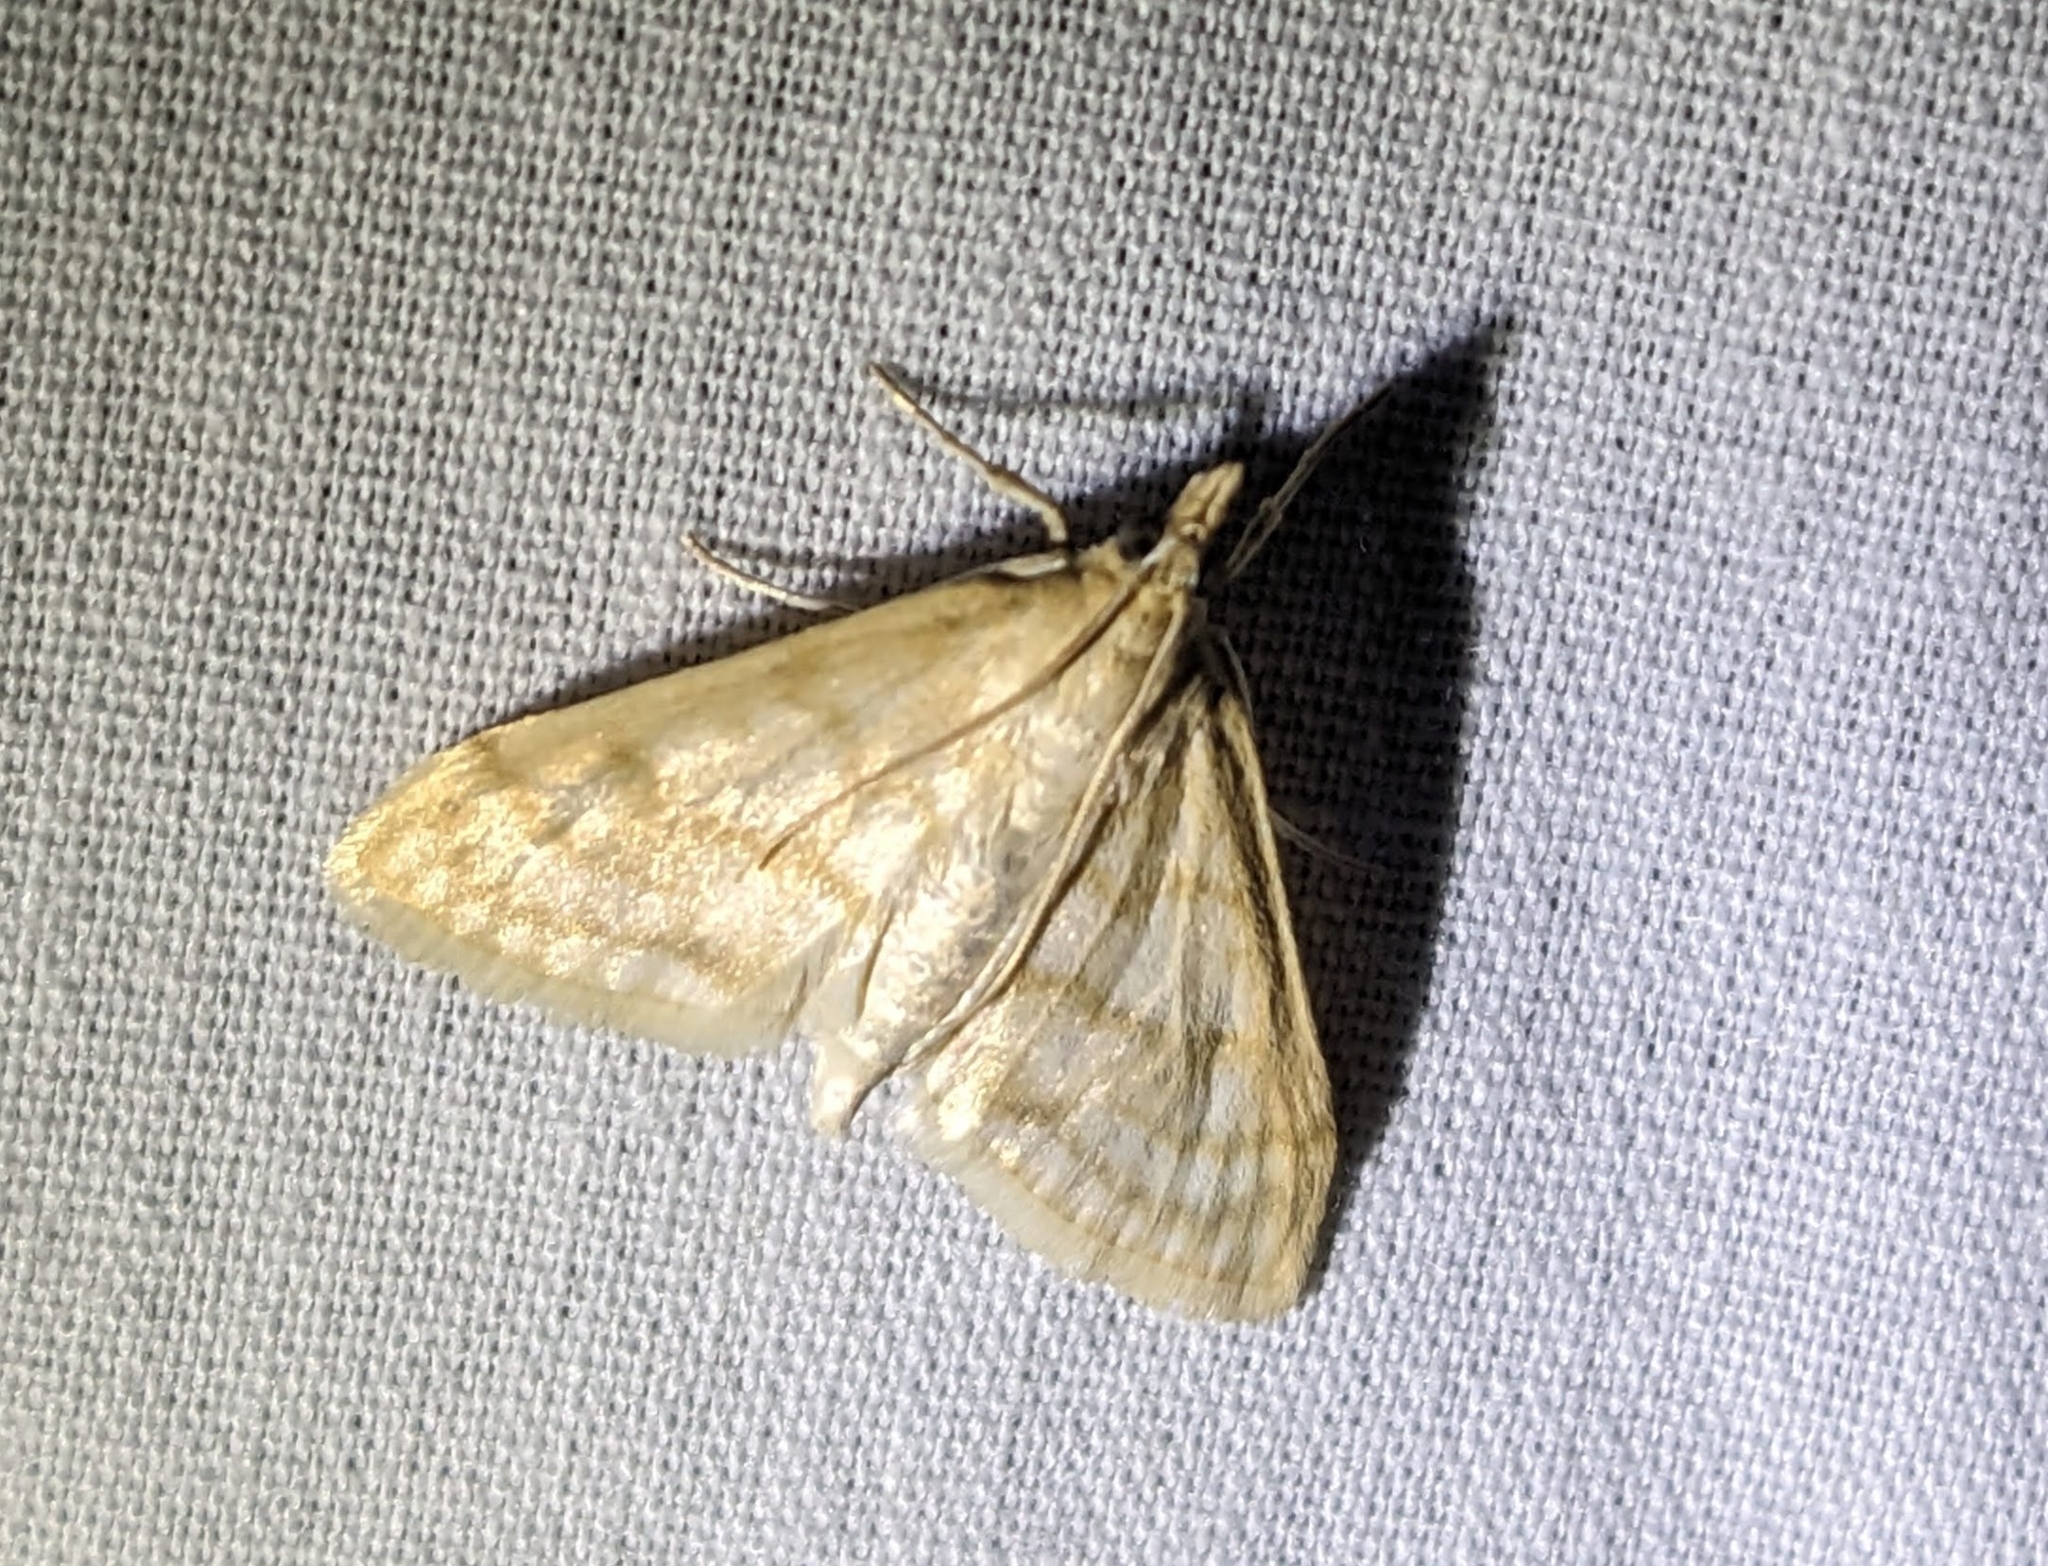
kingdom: Animalia
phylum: Arthropoda
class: Insecta
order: Lepidoptera
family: Crambidae
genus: Paracorsia
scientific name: Paracorsia repandalis
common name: Mullein moth
